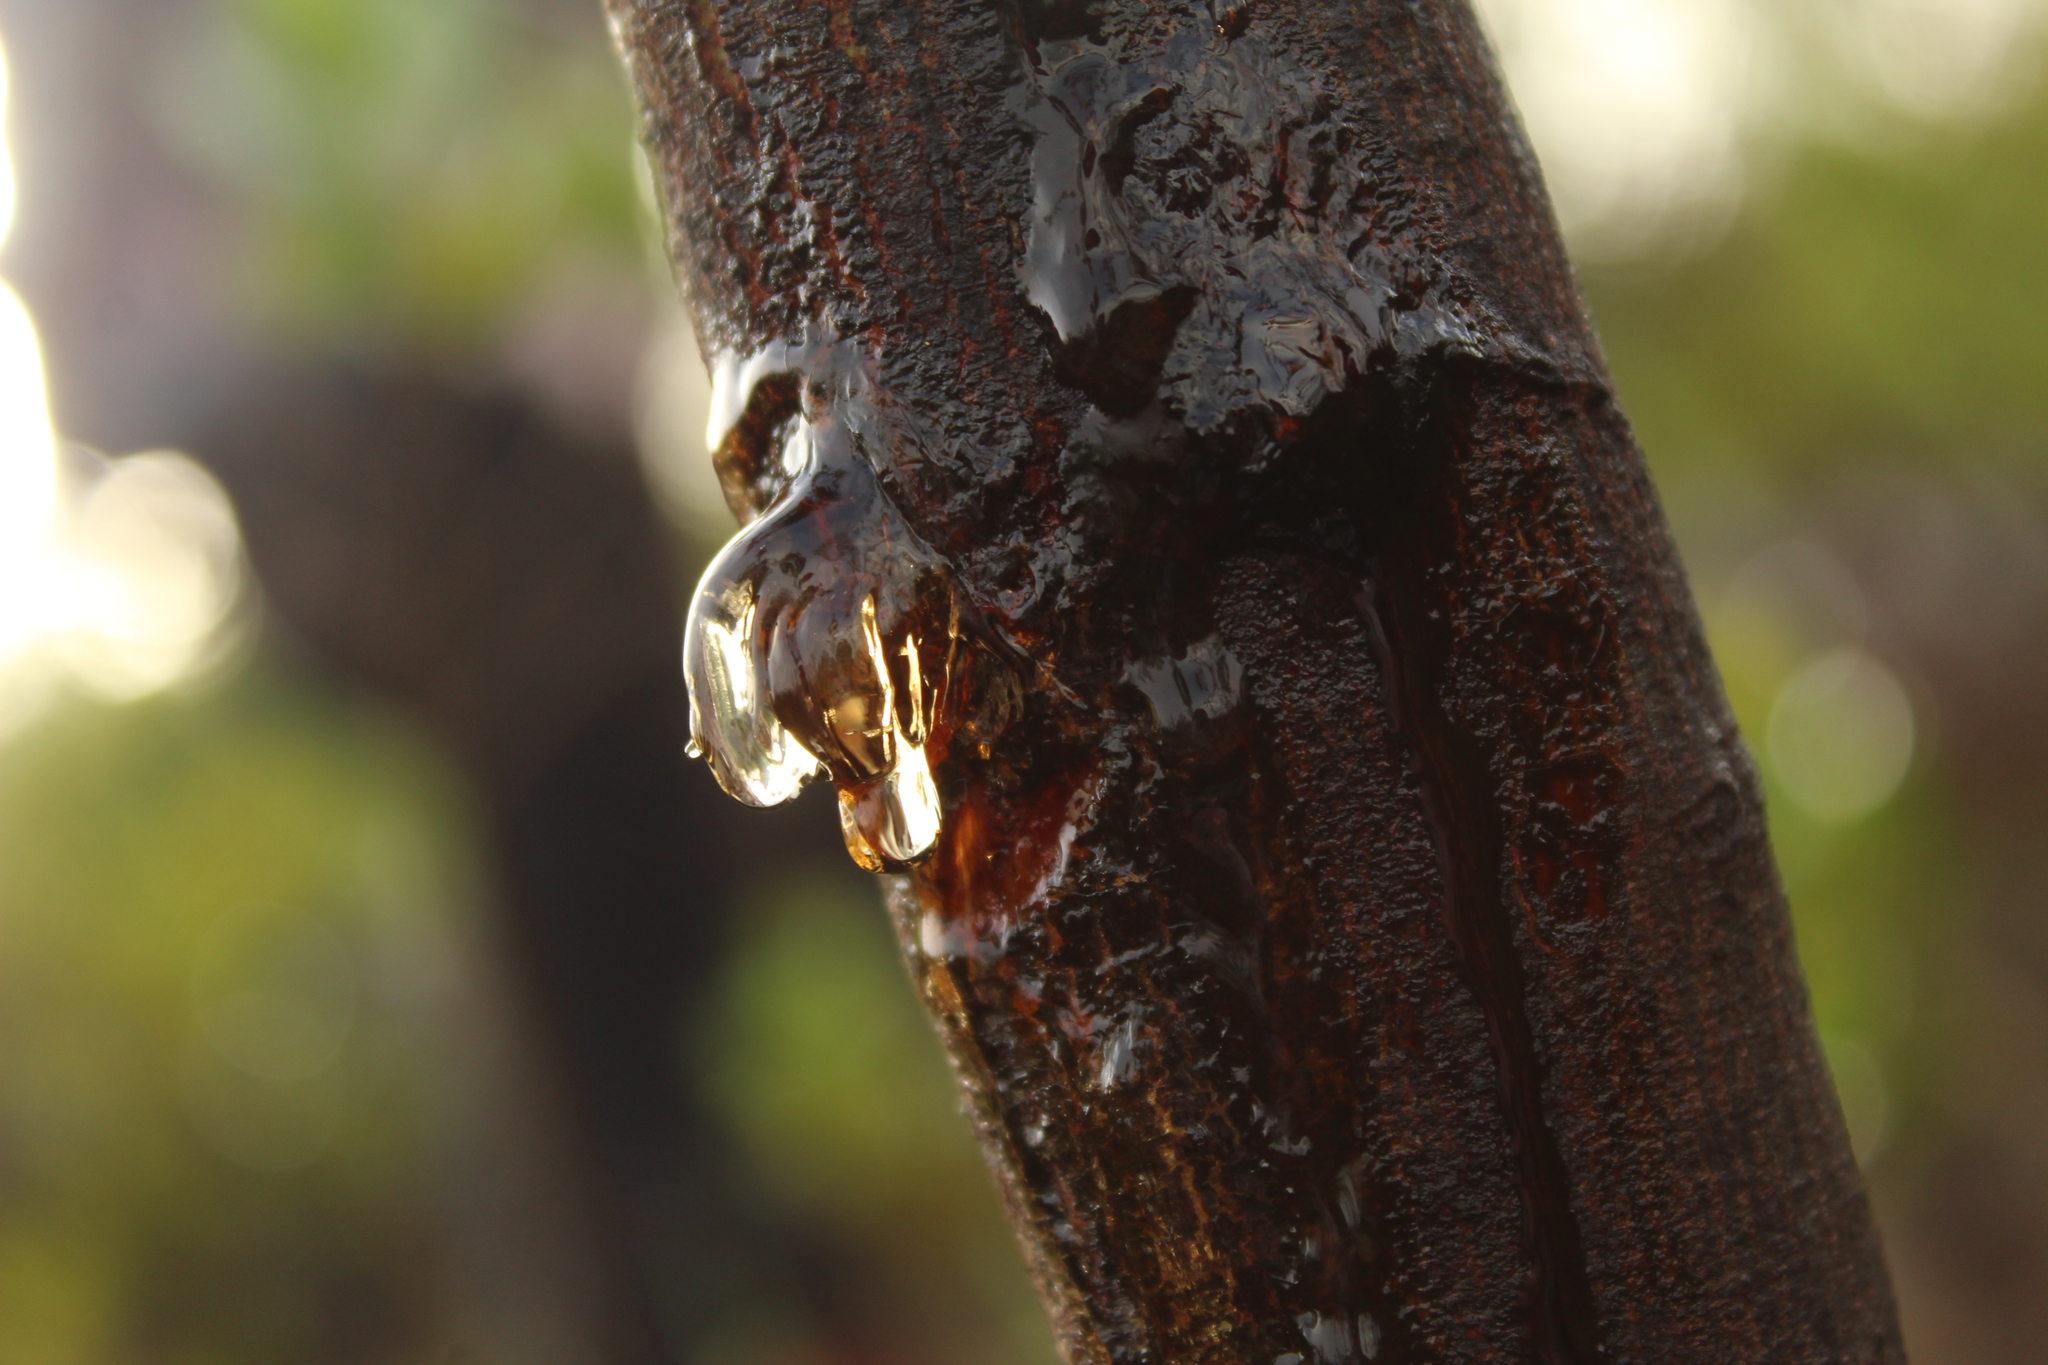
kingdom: Plantae
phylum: Tracheophyta
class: Magnoliopsida
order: Fabales
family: Fabaceae
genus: Acacia
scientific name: Acacia mearnsii
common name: Black wattle
